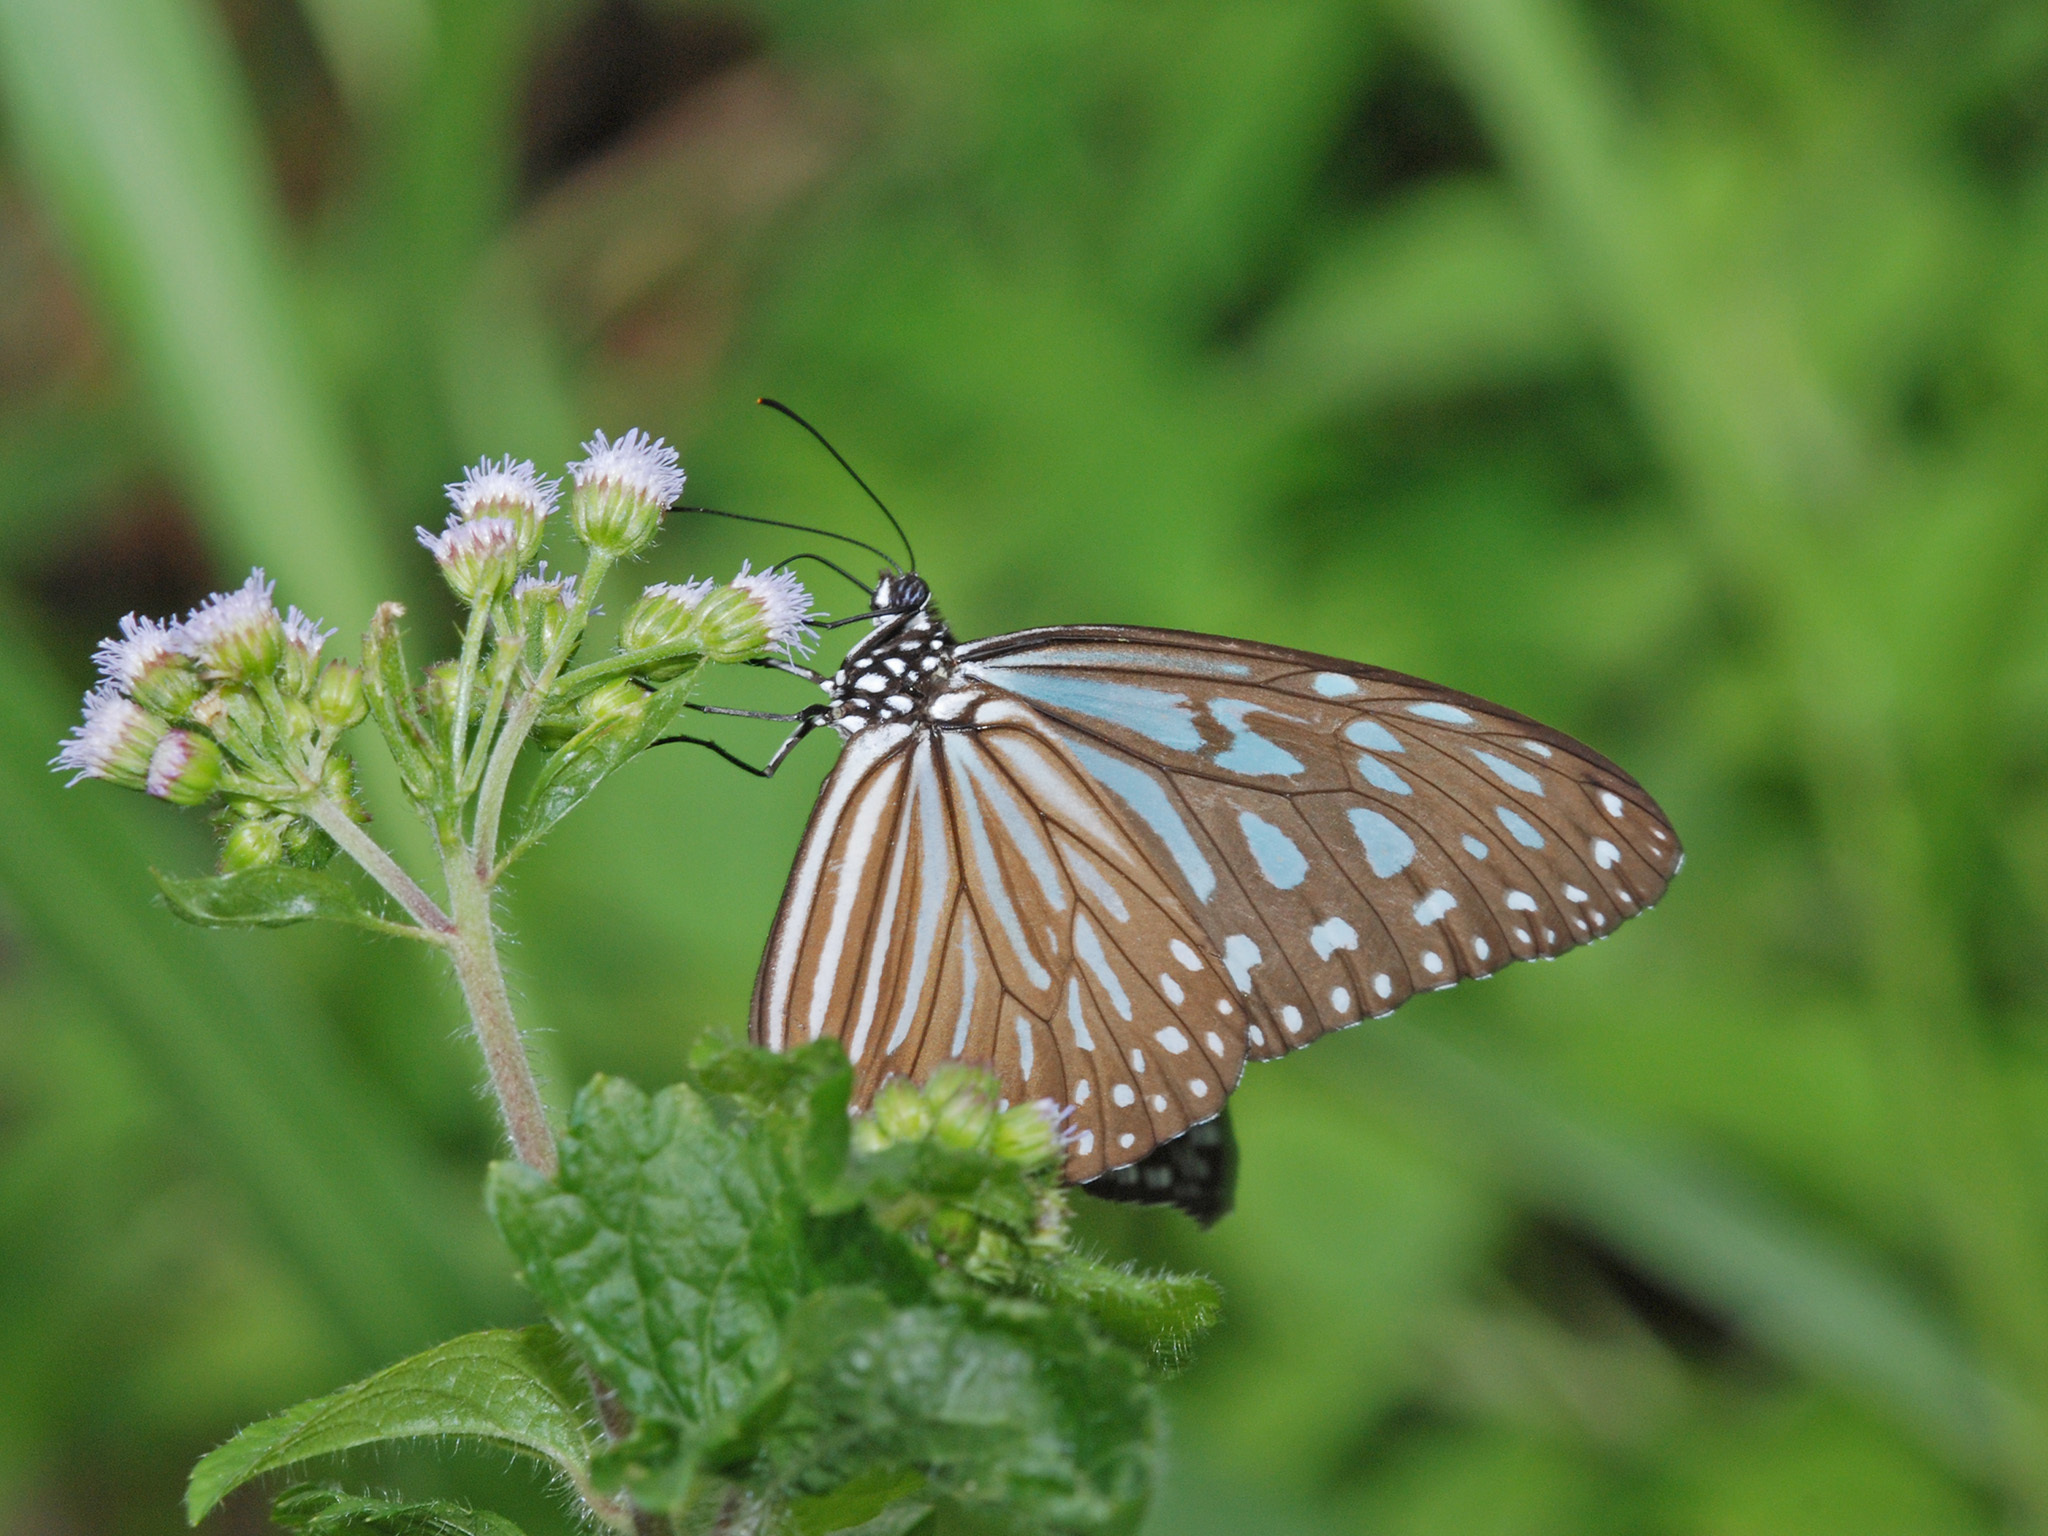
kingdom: Animalia
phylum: Arthropoda
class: Insecta
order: Lepidoptera
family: Nymphalidae
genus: Ideopsis
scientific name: Ideopsis vulgaris
